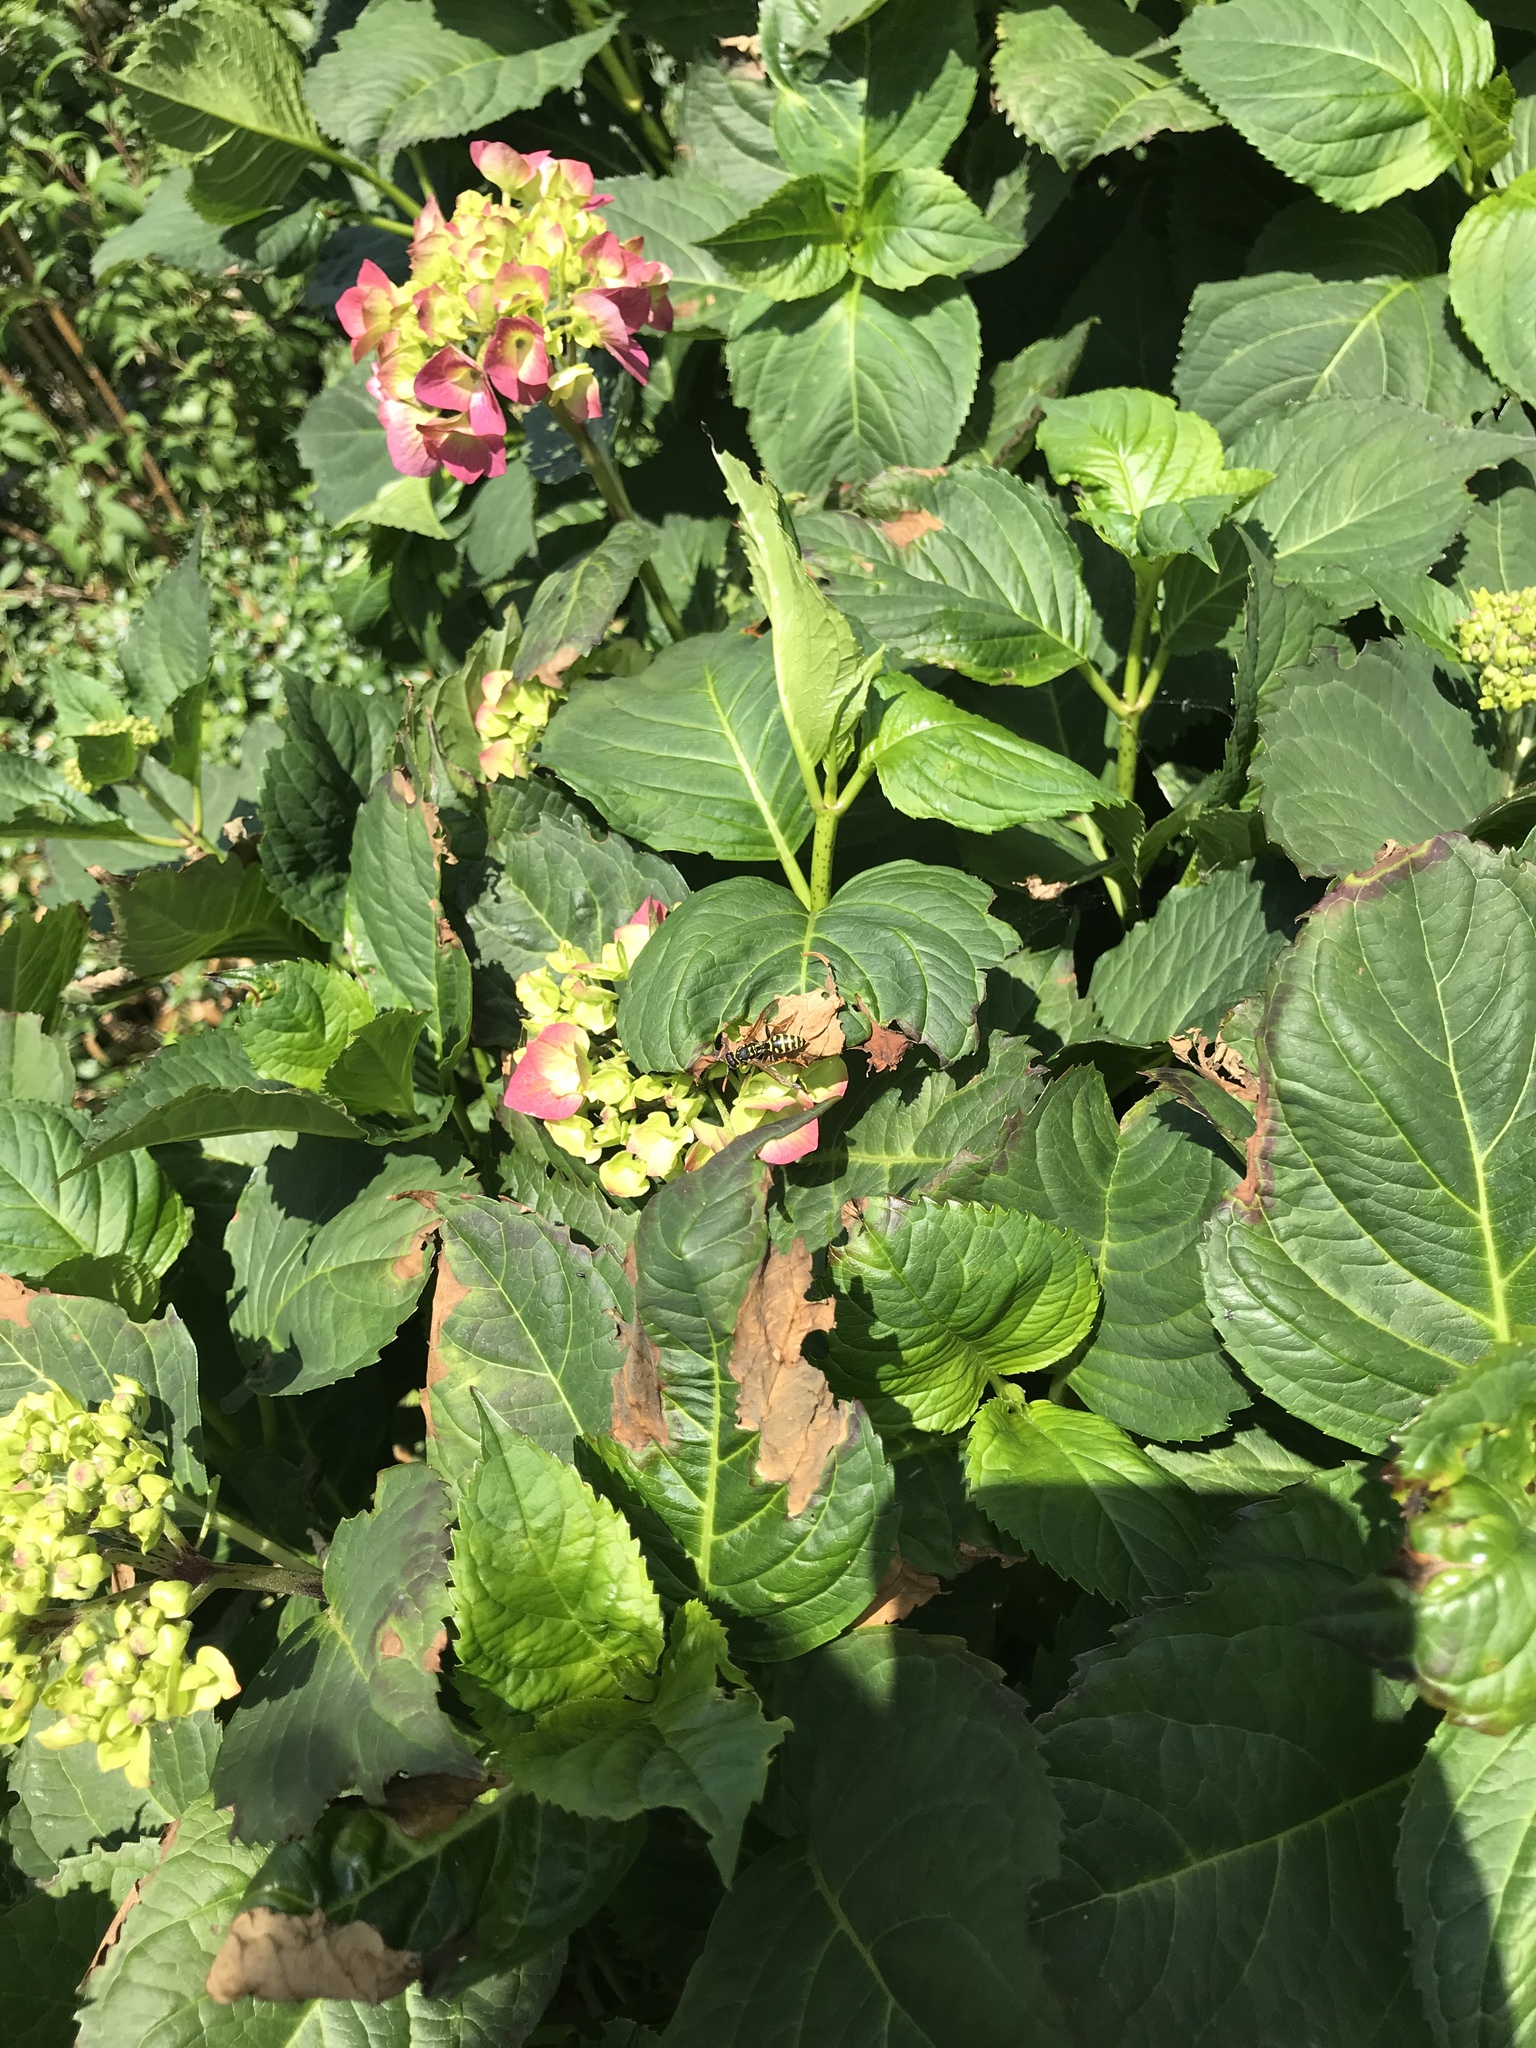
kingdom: Animalia
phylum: Arthropoda
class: Insecta
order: Hymenoptera
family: Eumenidae
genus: Polistes
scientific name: Polistes dominula
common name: Paper wasp
